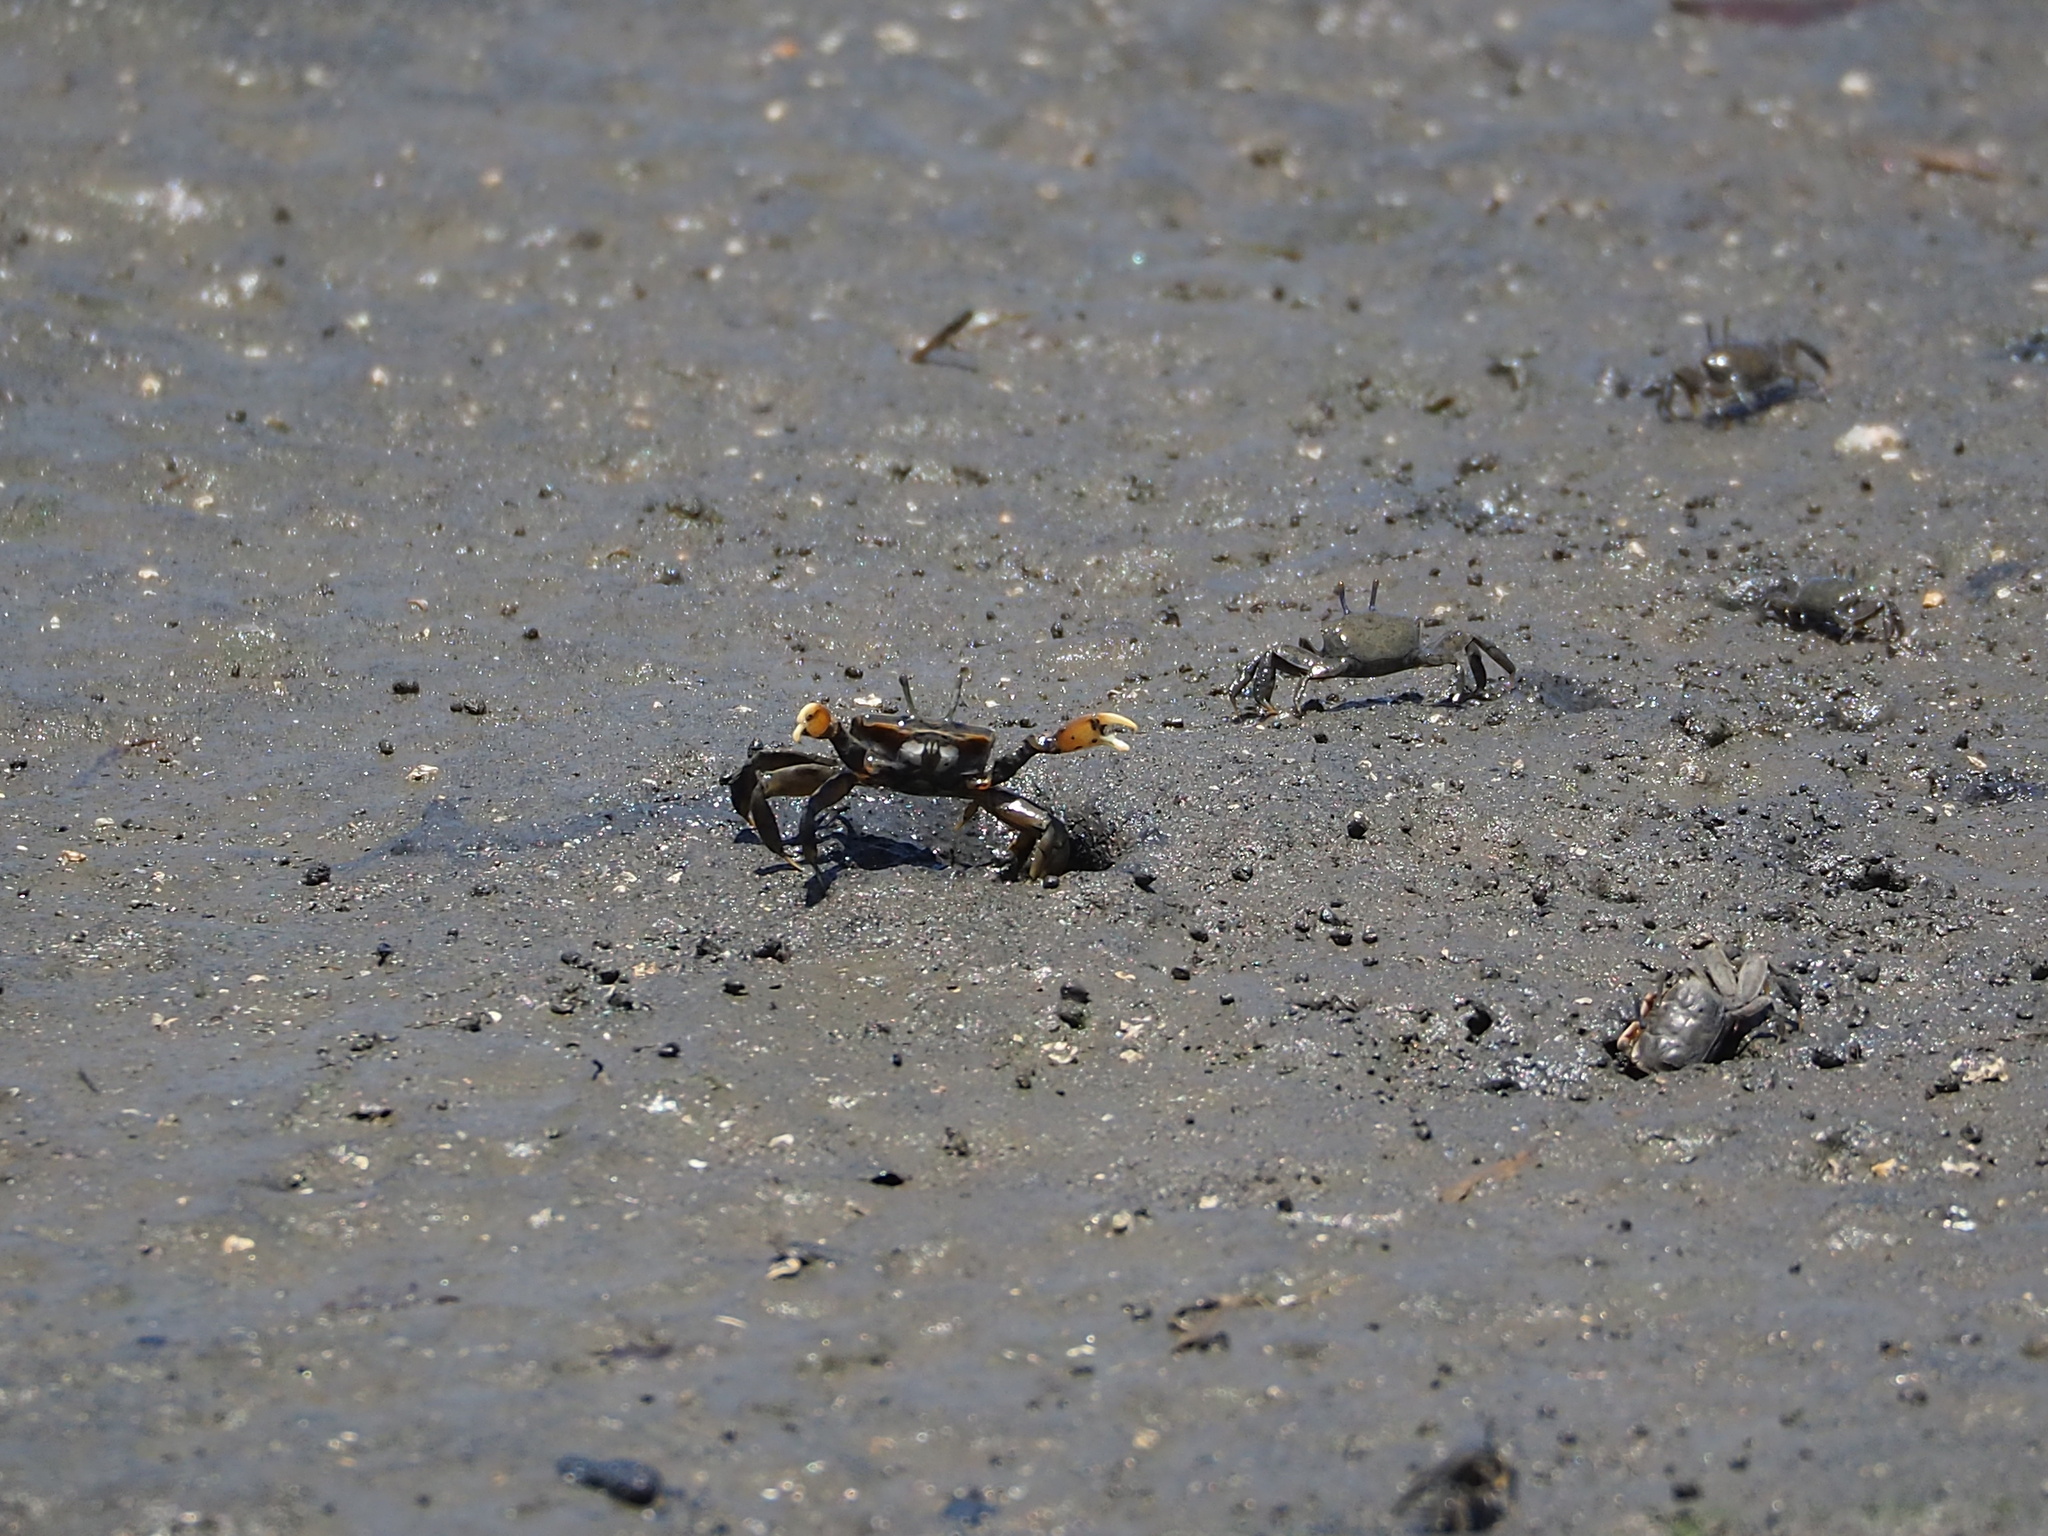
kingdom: Animalia
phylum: Arthropoda
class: Malacostraca
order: Decapoda
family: Macrophthalmidae
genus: Macrophthalmus
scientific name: Macrophthalmus banzai
